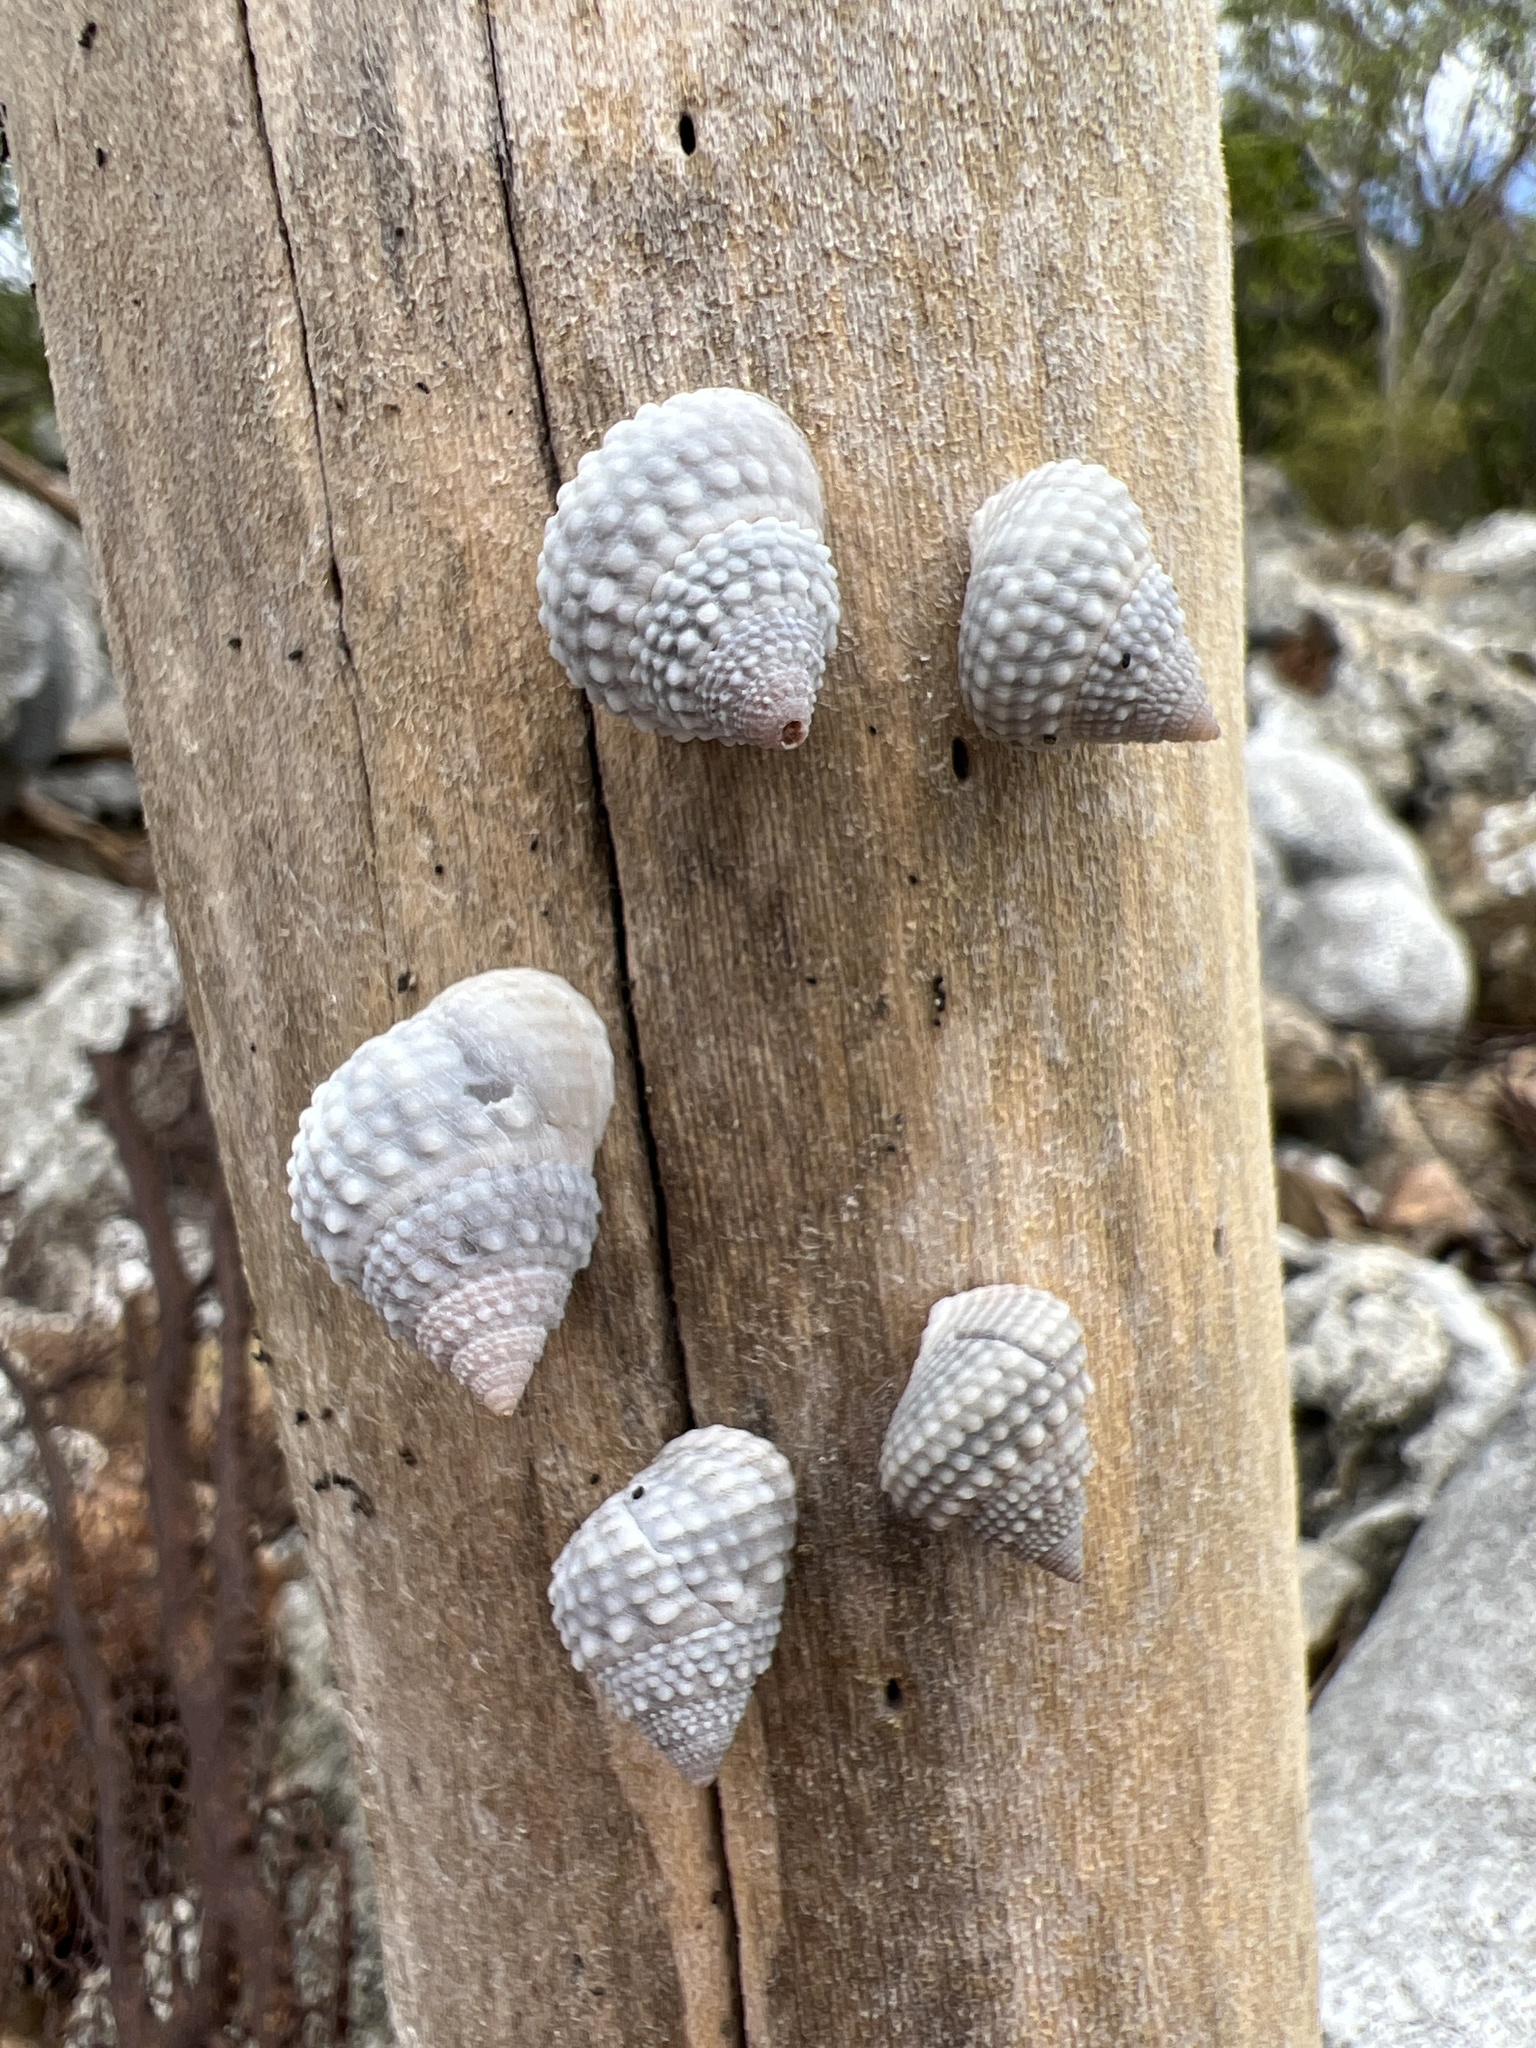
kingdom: Animalia
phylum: Mollusca
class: Gastropoda
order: Littorinimorpha
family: Littorinidae
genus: Cenchritis
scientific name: Cenchritis muricatus
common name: Beaded periwinkle
